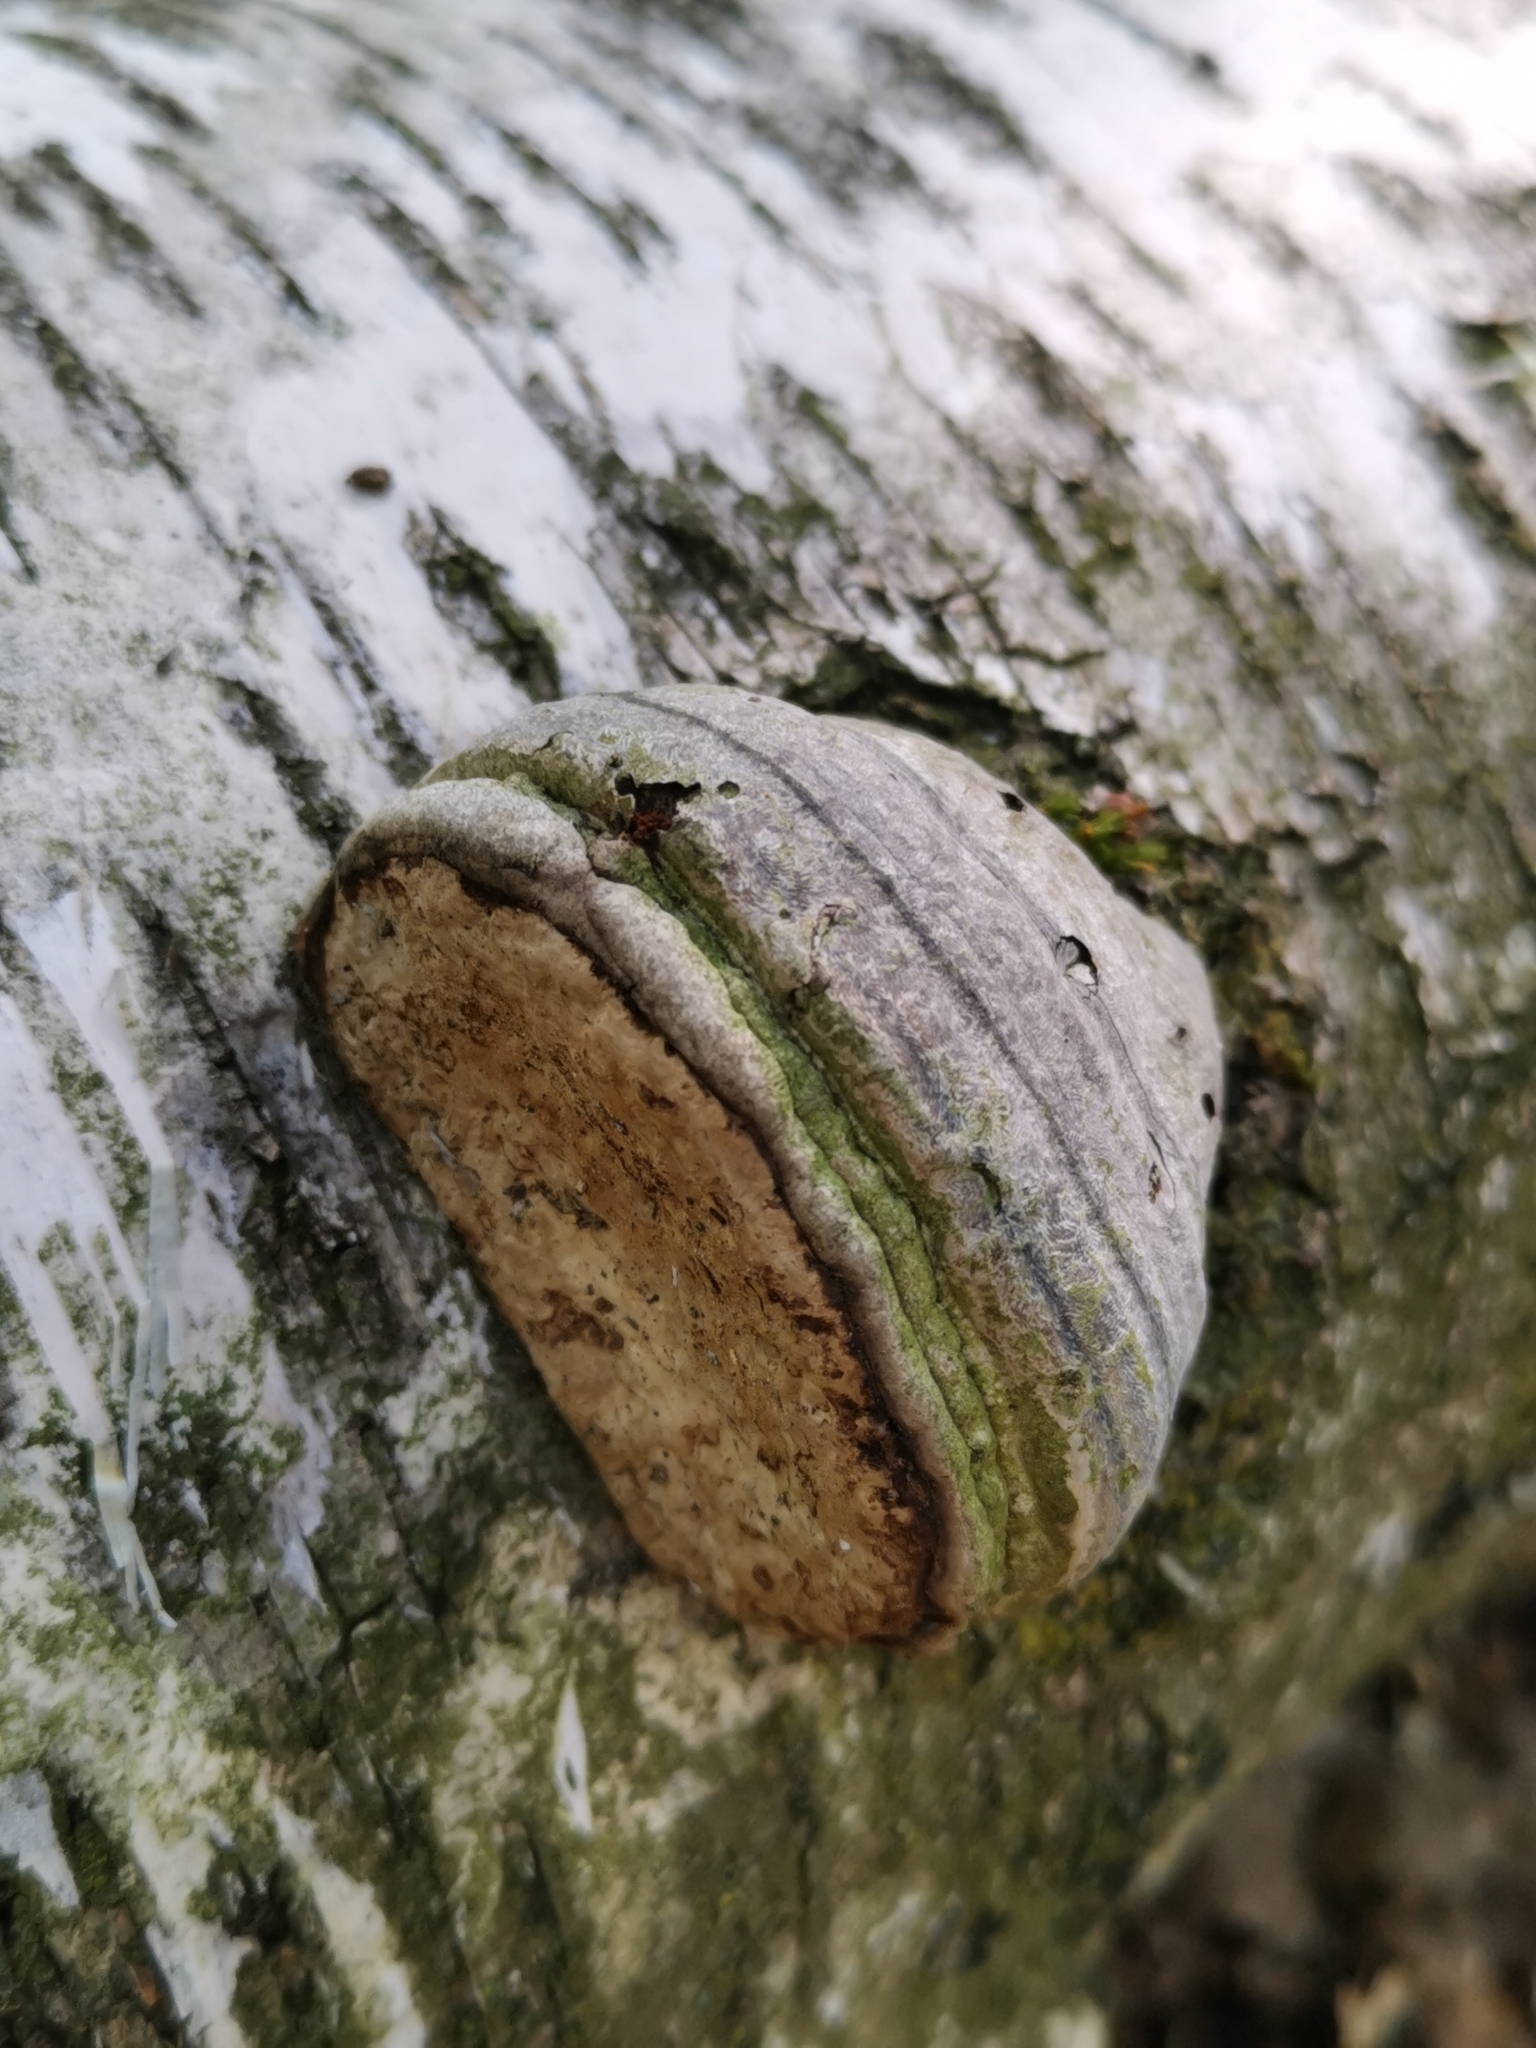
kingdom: Fungi
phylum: Basidiomycota
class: Agaricomycetes
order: Polyporales
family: Polyporaceae
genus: Fomes
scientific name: Fomes fomentarius
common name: Hoof fungus
